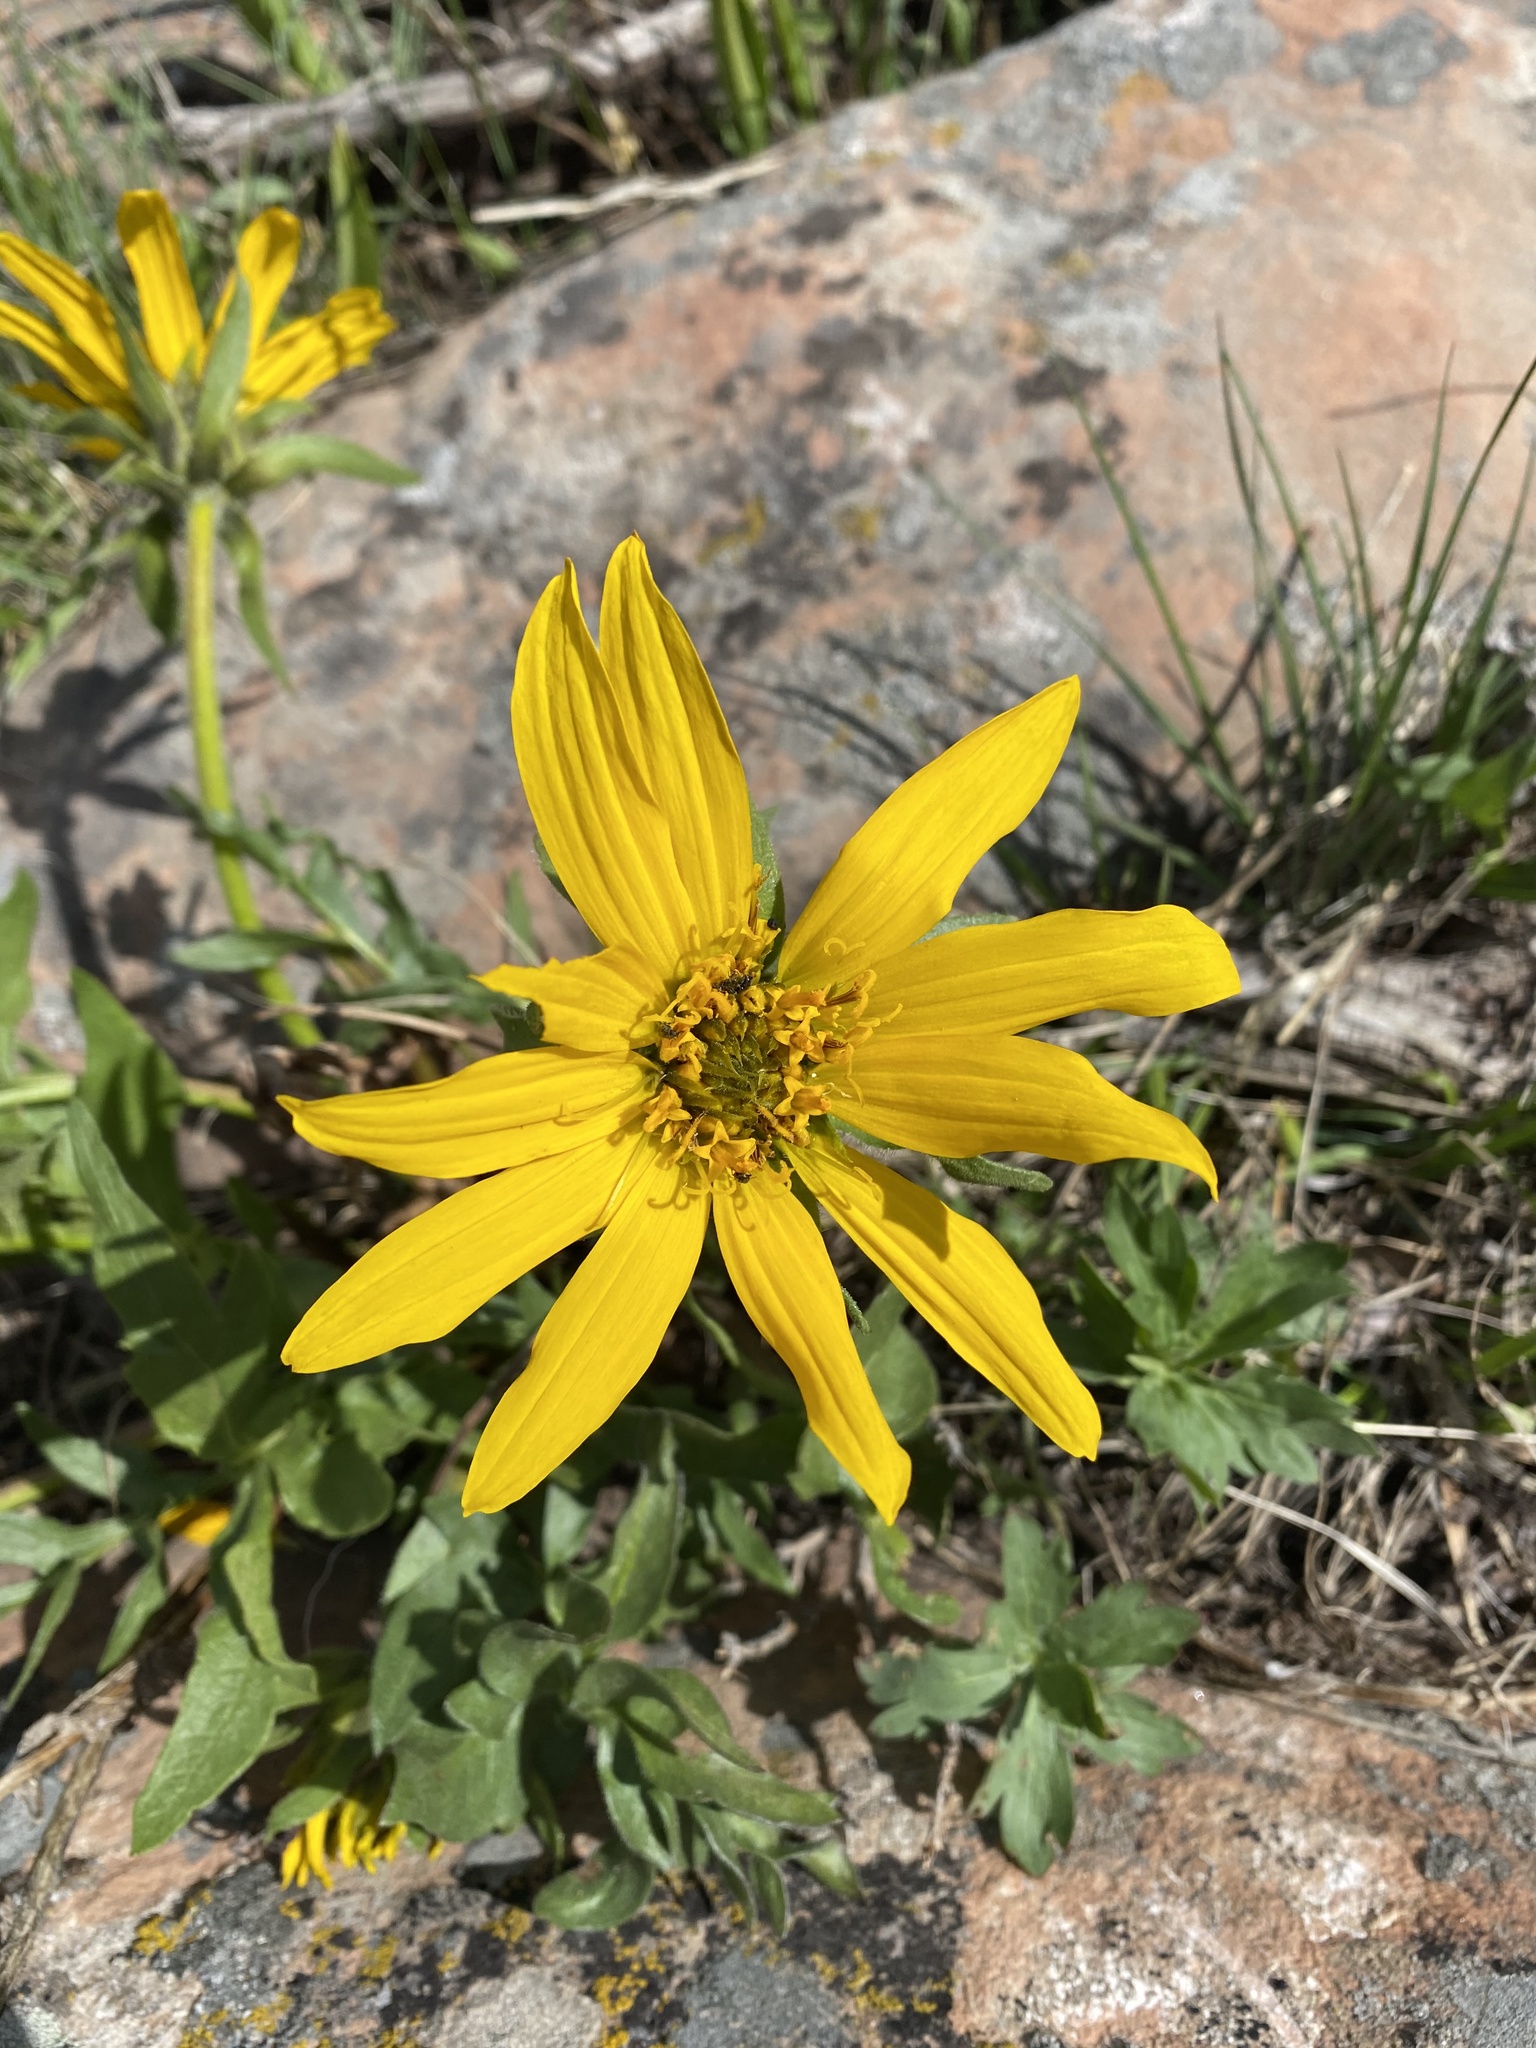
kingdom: Plantae
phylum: Tracheophyta
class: Magnoliopsida
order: Asterales
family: Asteraceae
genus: Balsamorhiza
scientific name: Balsamorhiza macrophylla
